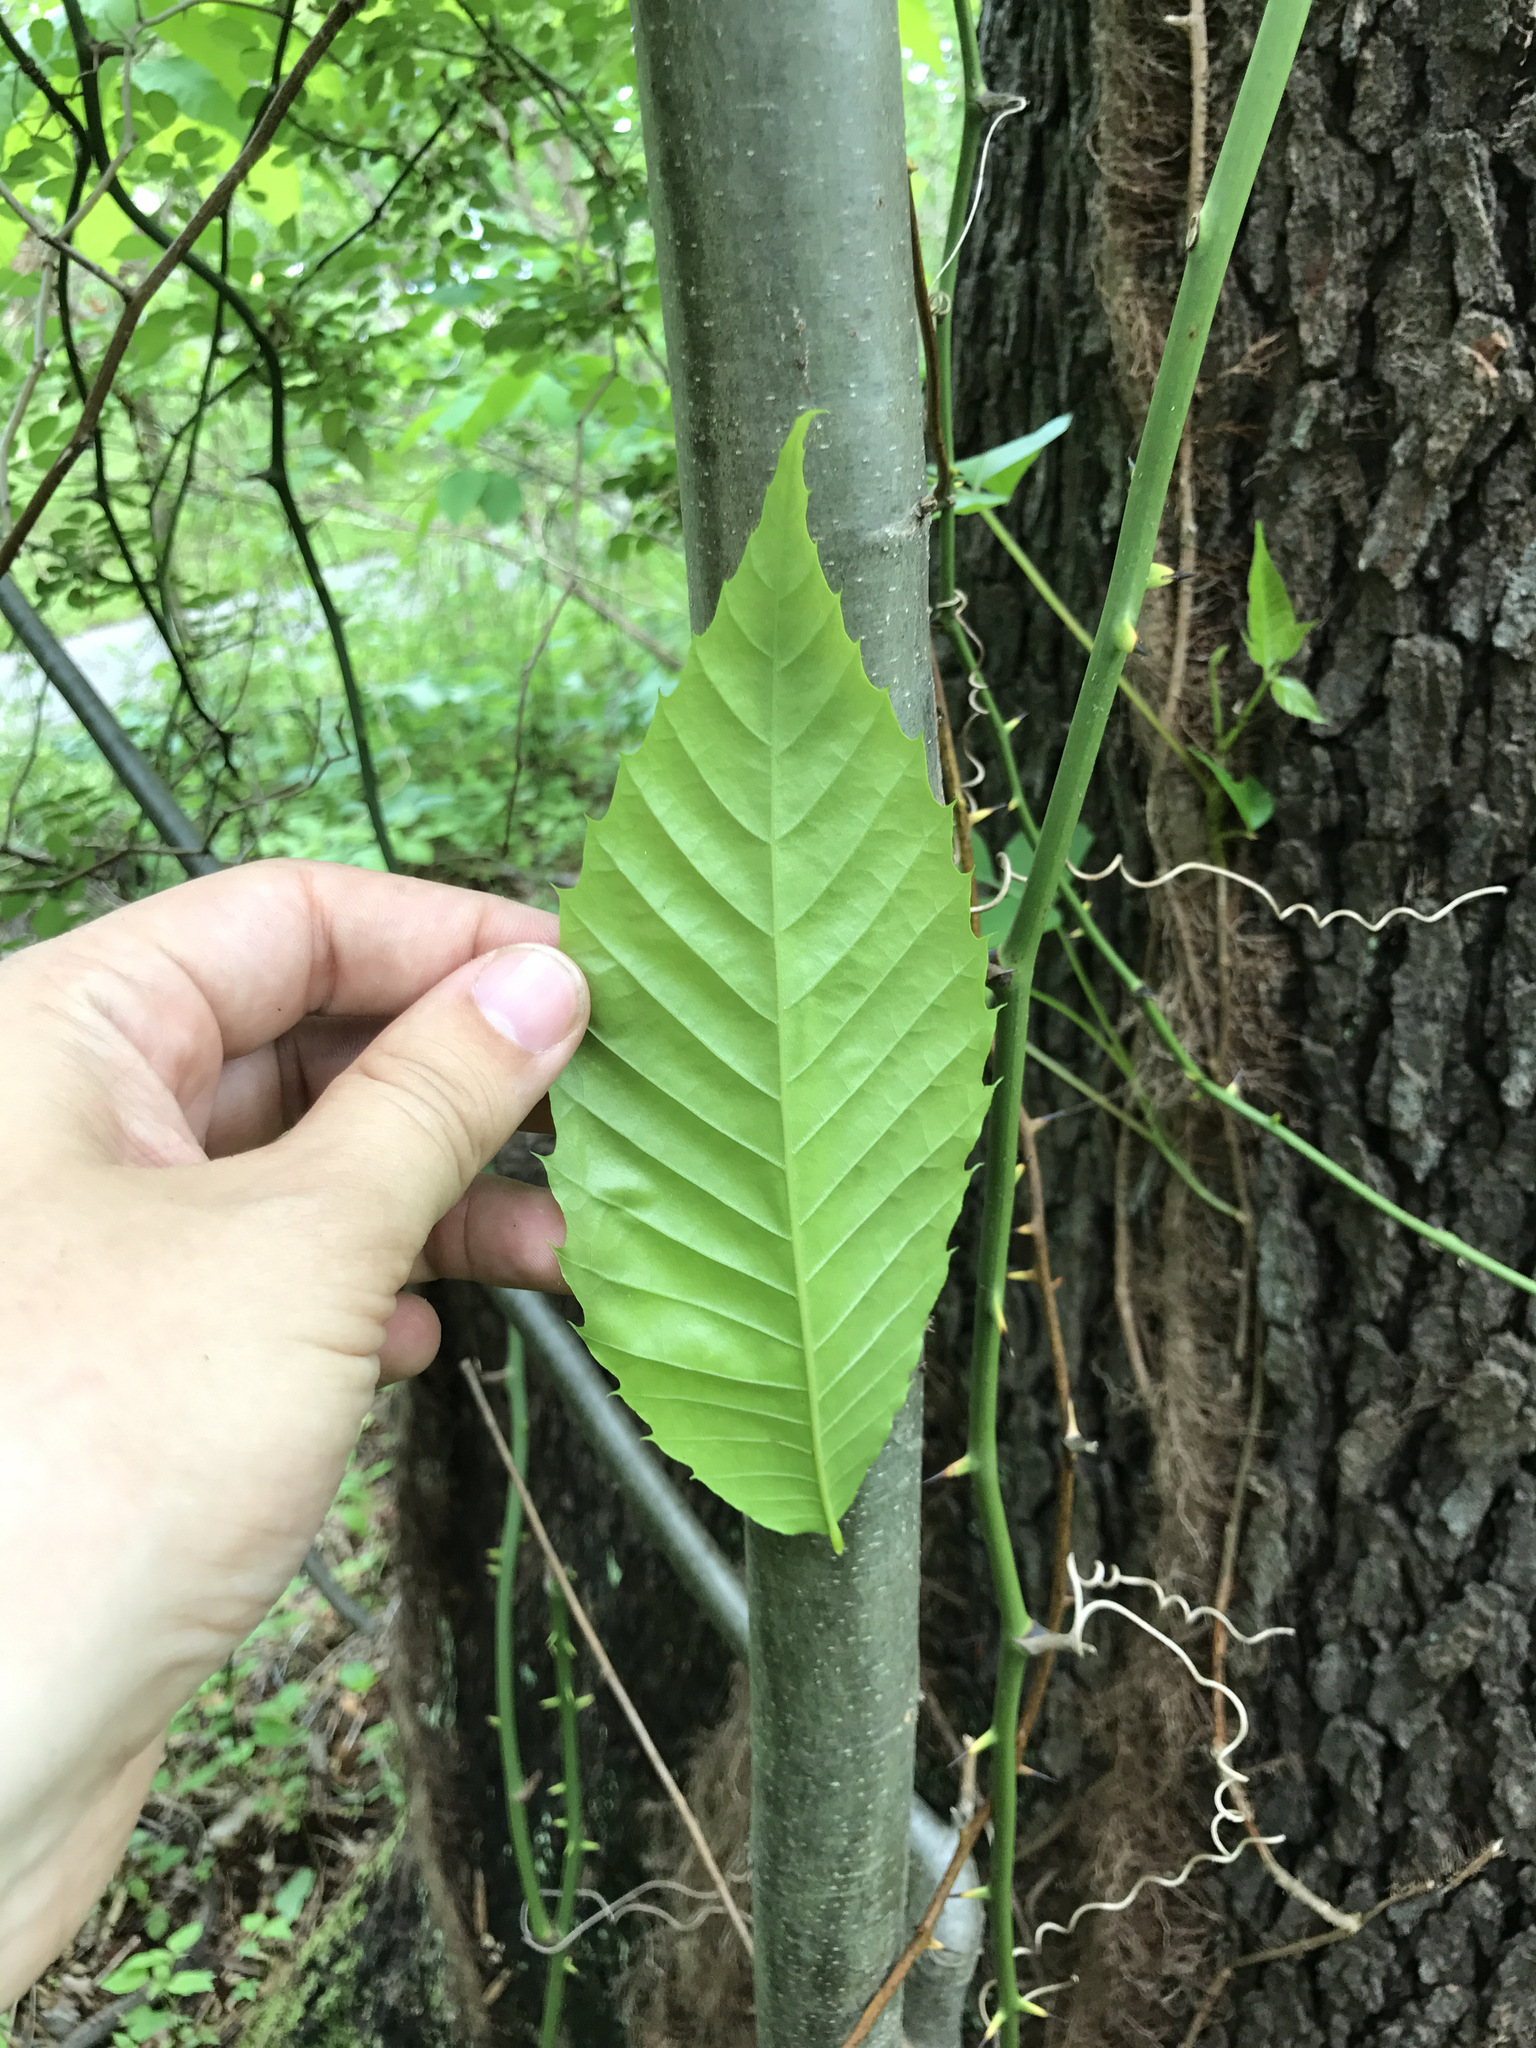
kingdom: Plantae
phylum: Tracheophyta
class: Magnoliopsida
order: Fagales
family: Fagaceae
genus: Castanea
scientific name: Castanea dentata
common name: American chestnut
